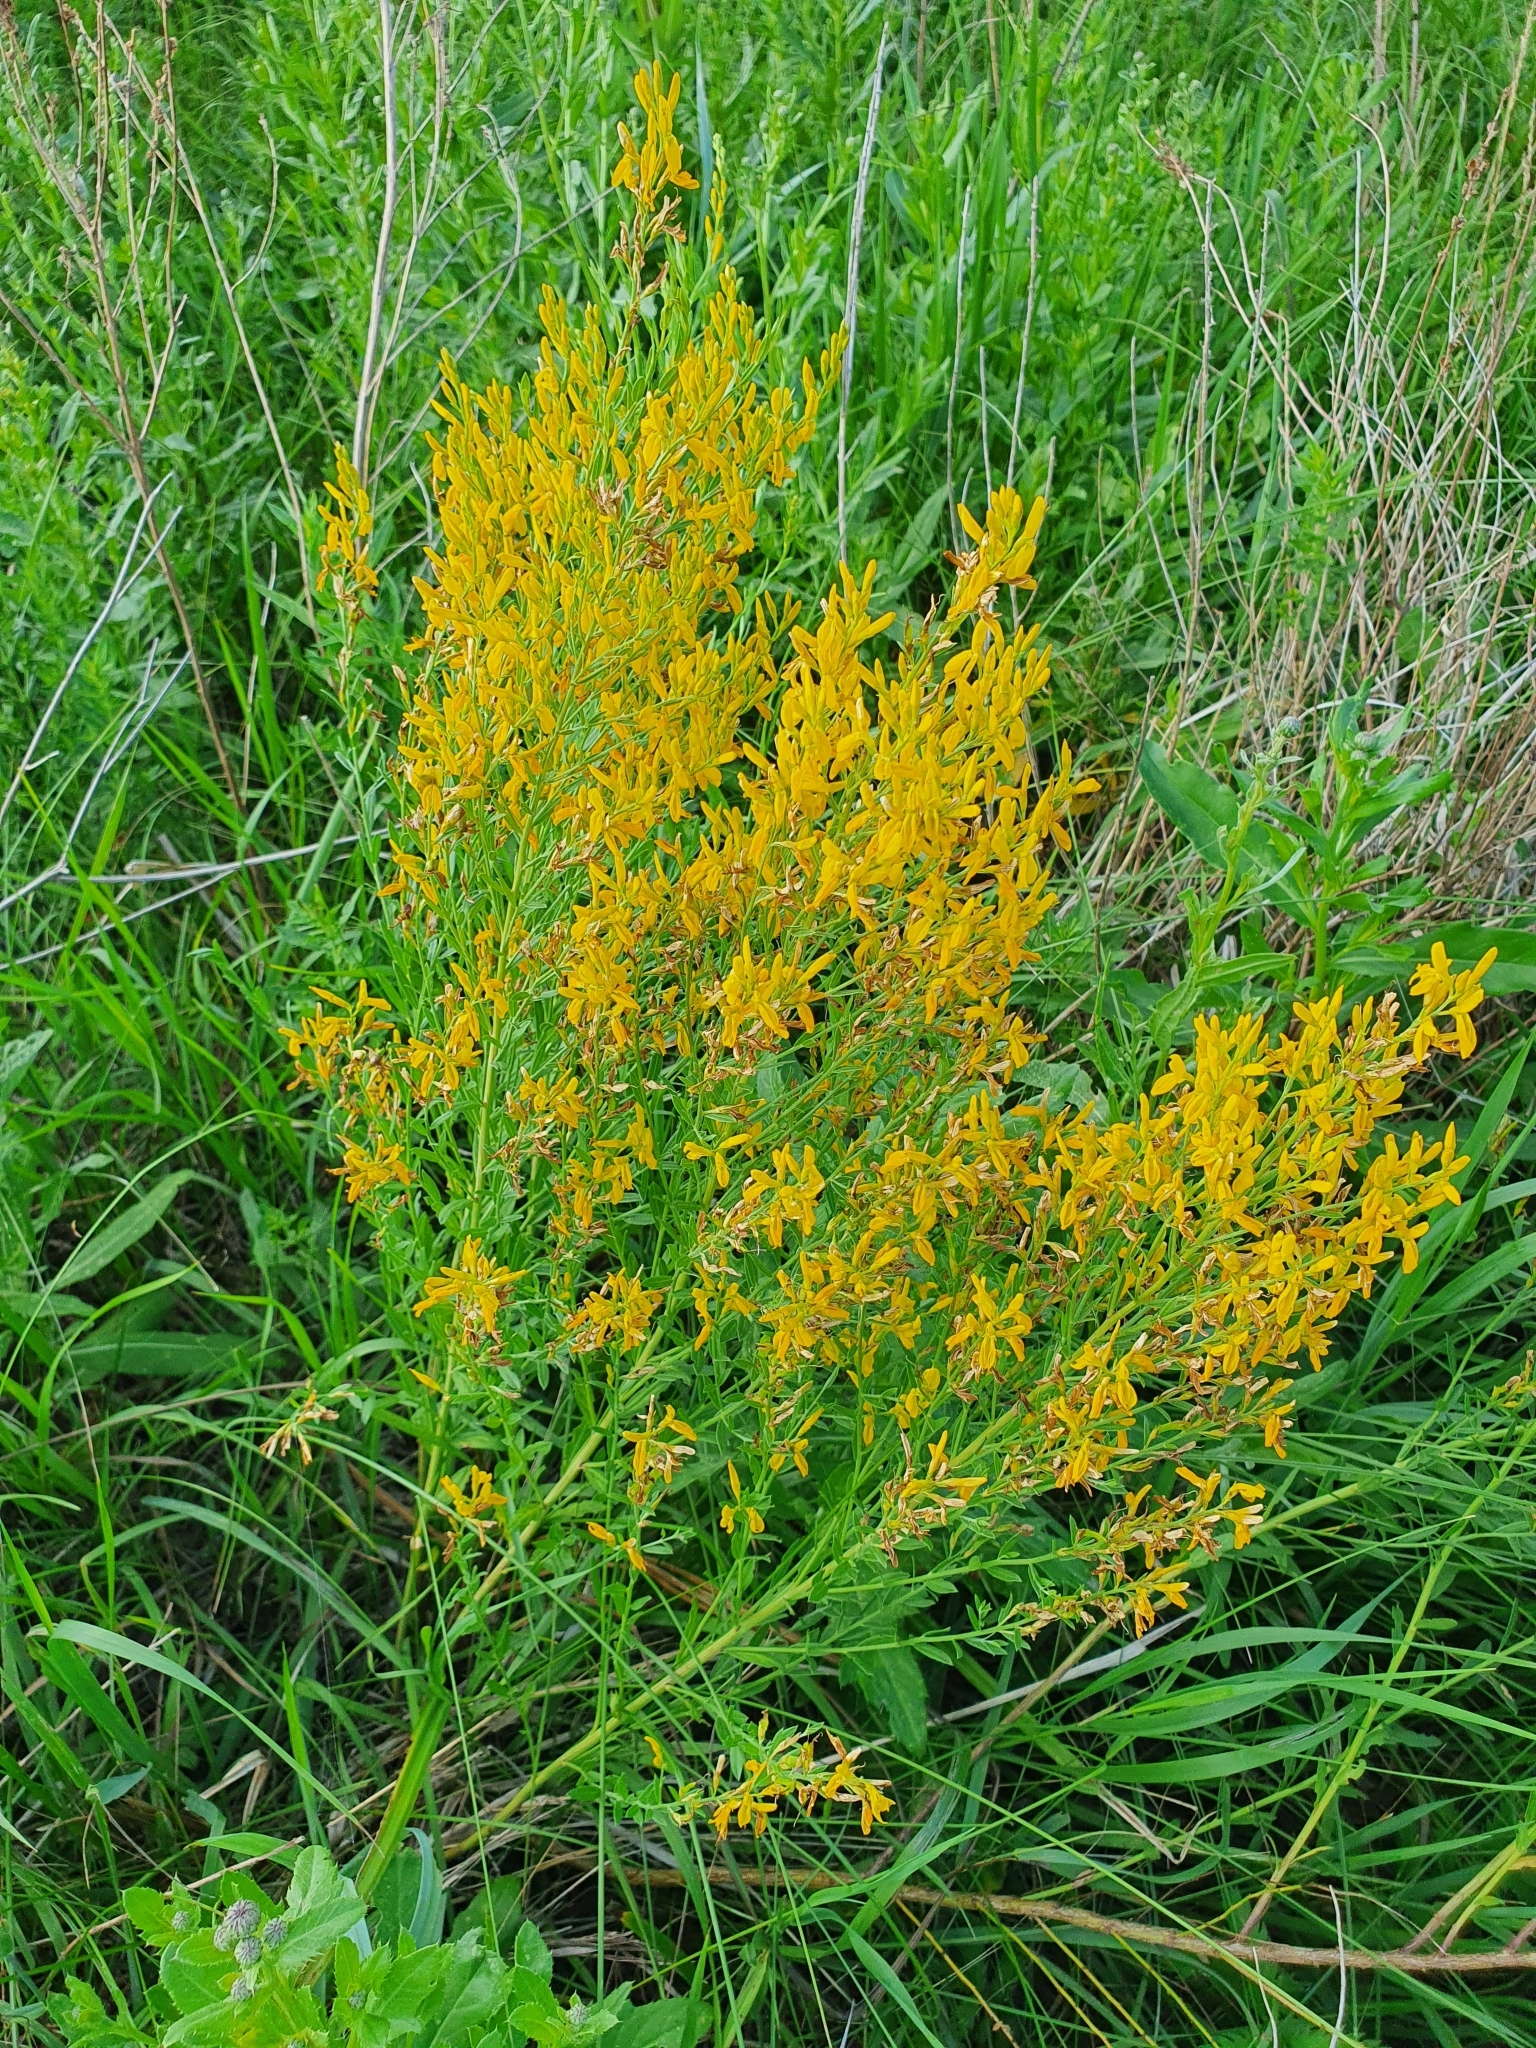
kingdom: Plantae
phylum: Tracheophyta
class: Magnoliopsida
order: Fabales
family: Fabaceae
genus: Genista
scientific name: Genista tinctoria
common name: Dyer's greenweed
